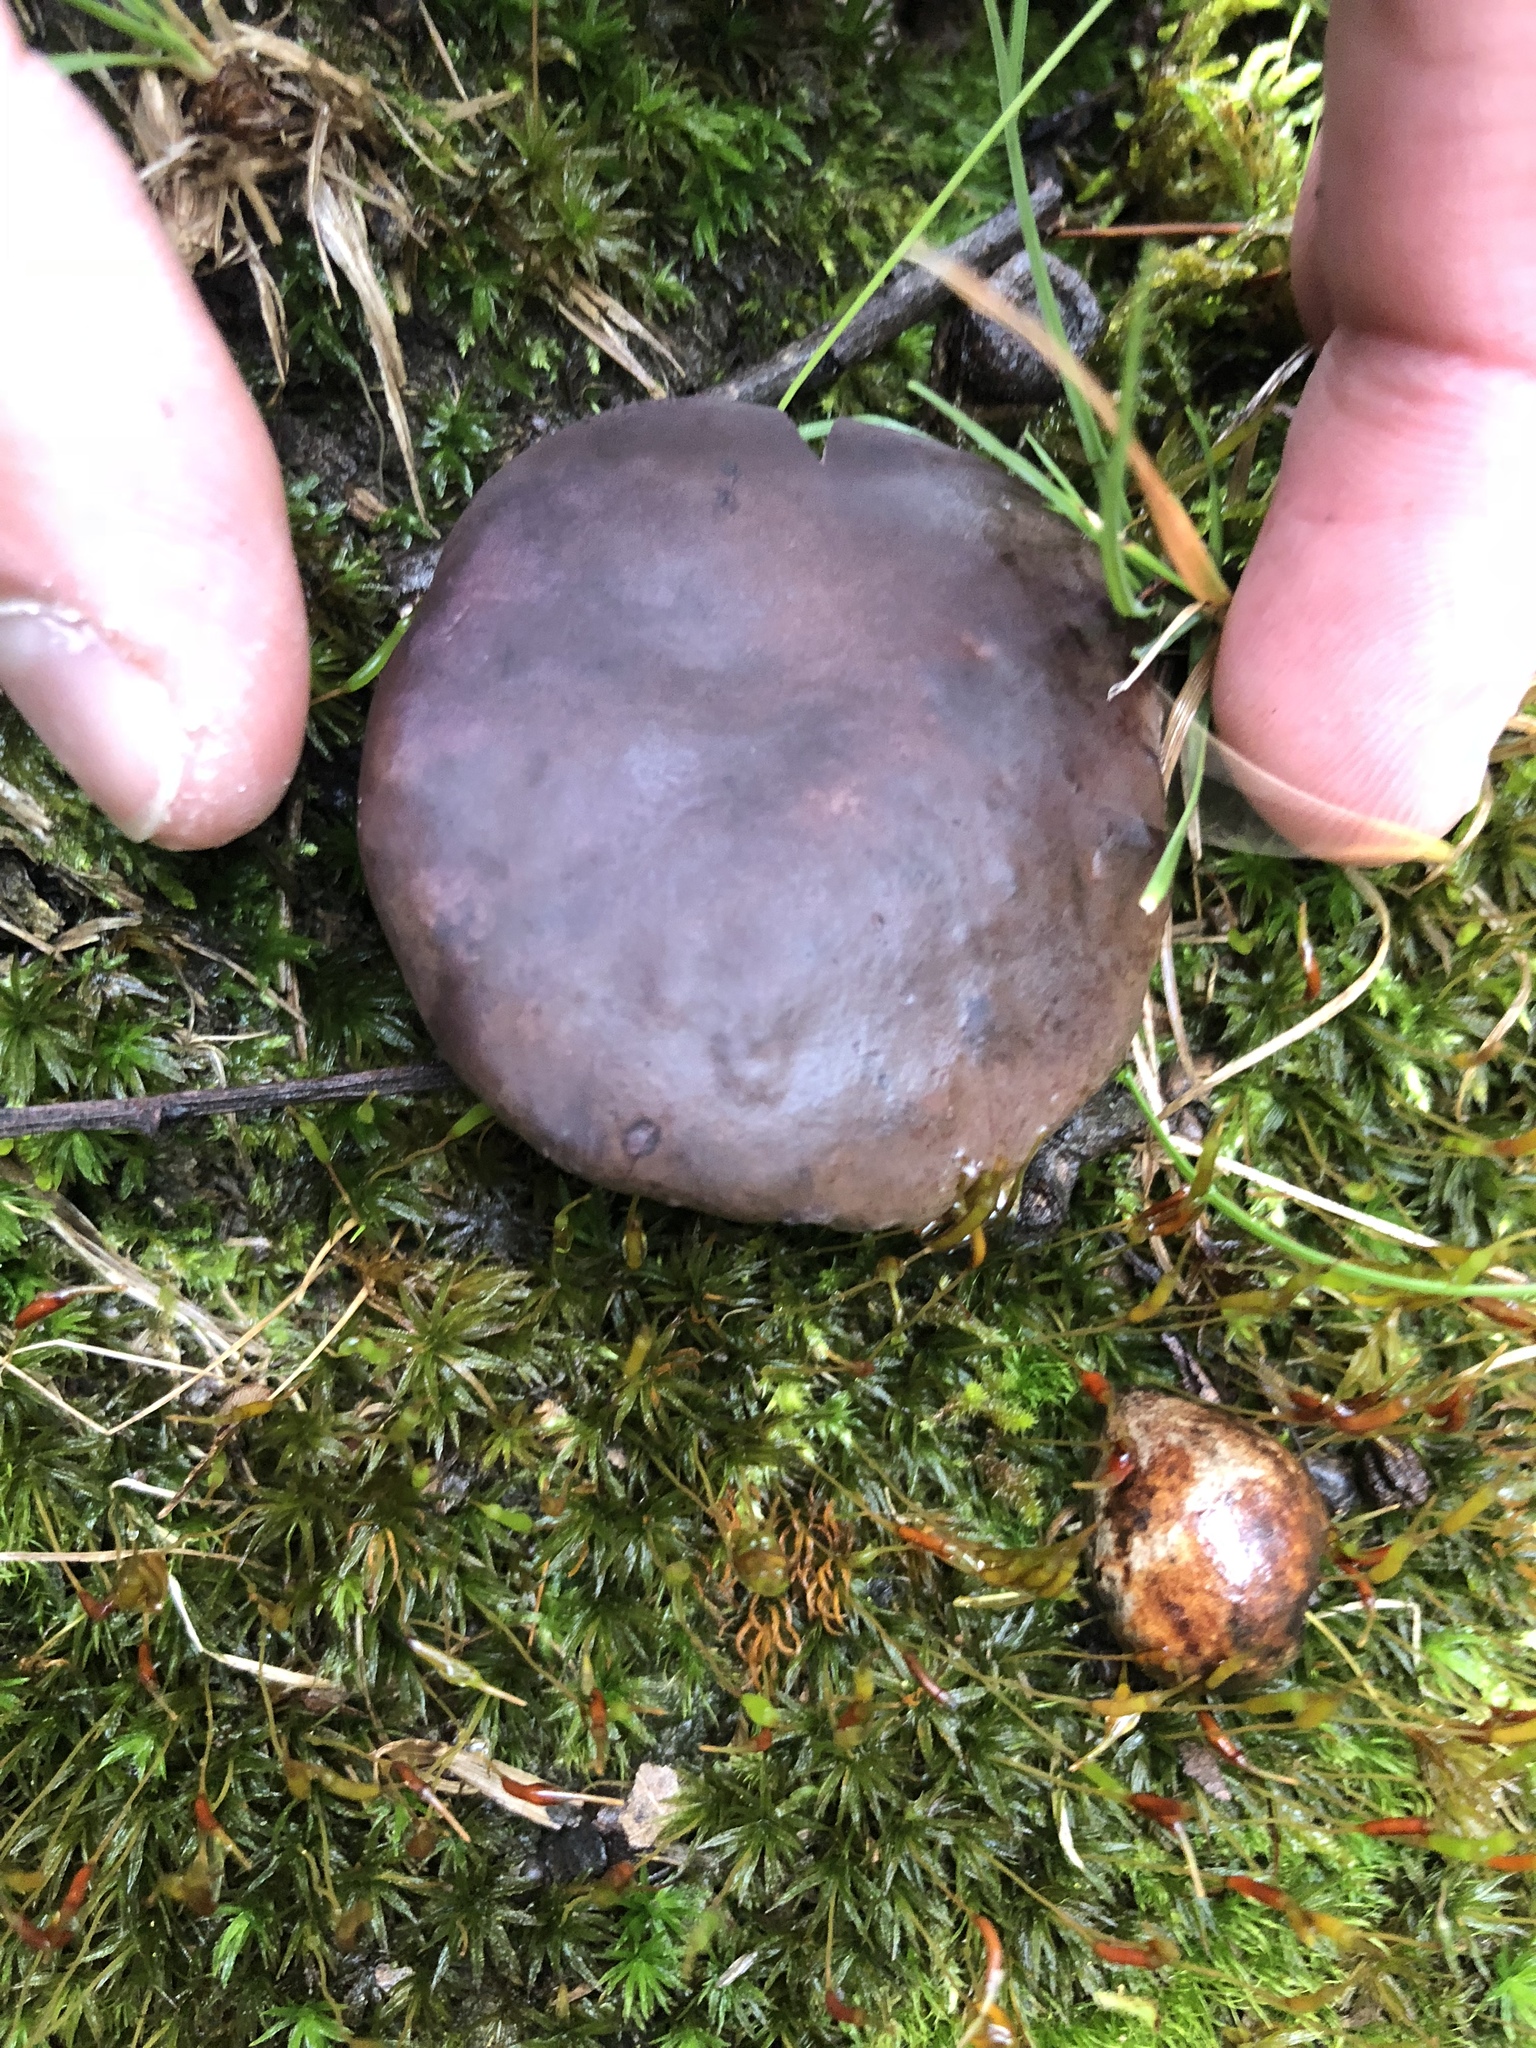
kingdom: Fungi
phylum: Basidiomycota
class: Agaricomycetes
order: Boletales
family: Boletaceae
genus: Tylopilus
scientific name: Tylopilus plumbeoviolaceus
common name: Violet gray bolete
